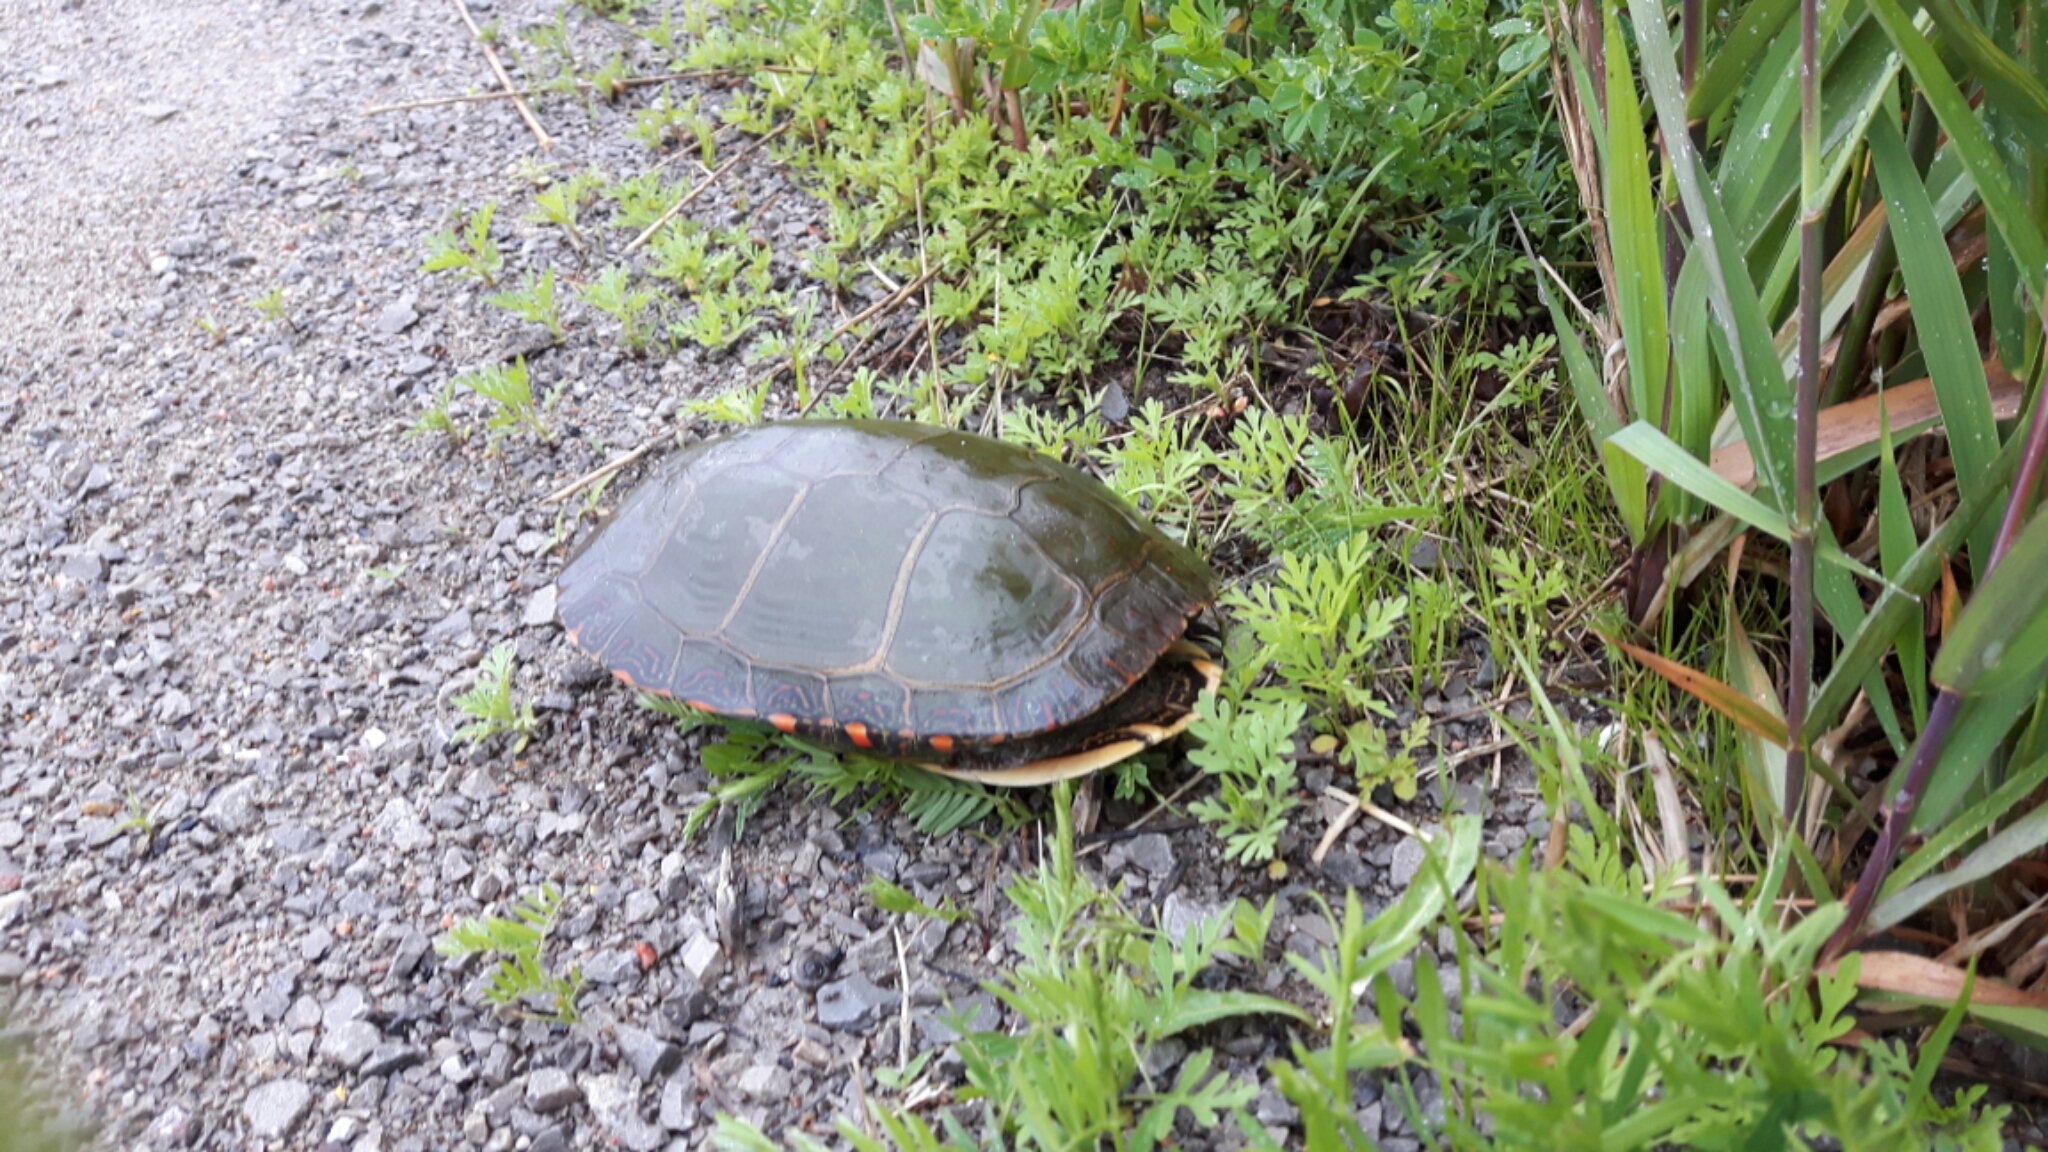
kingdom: Animalia
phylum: Chordata
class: Testudines
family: Emydidae
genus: Chrysemys
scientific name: Chrysemys picta
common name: Painted turtle
